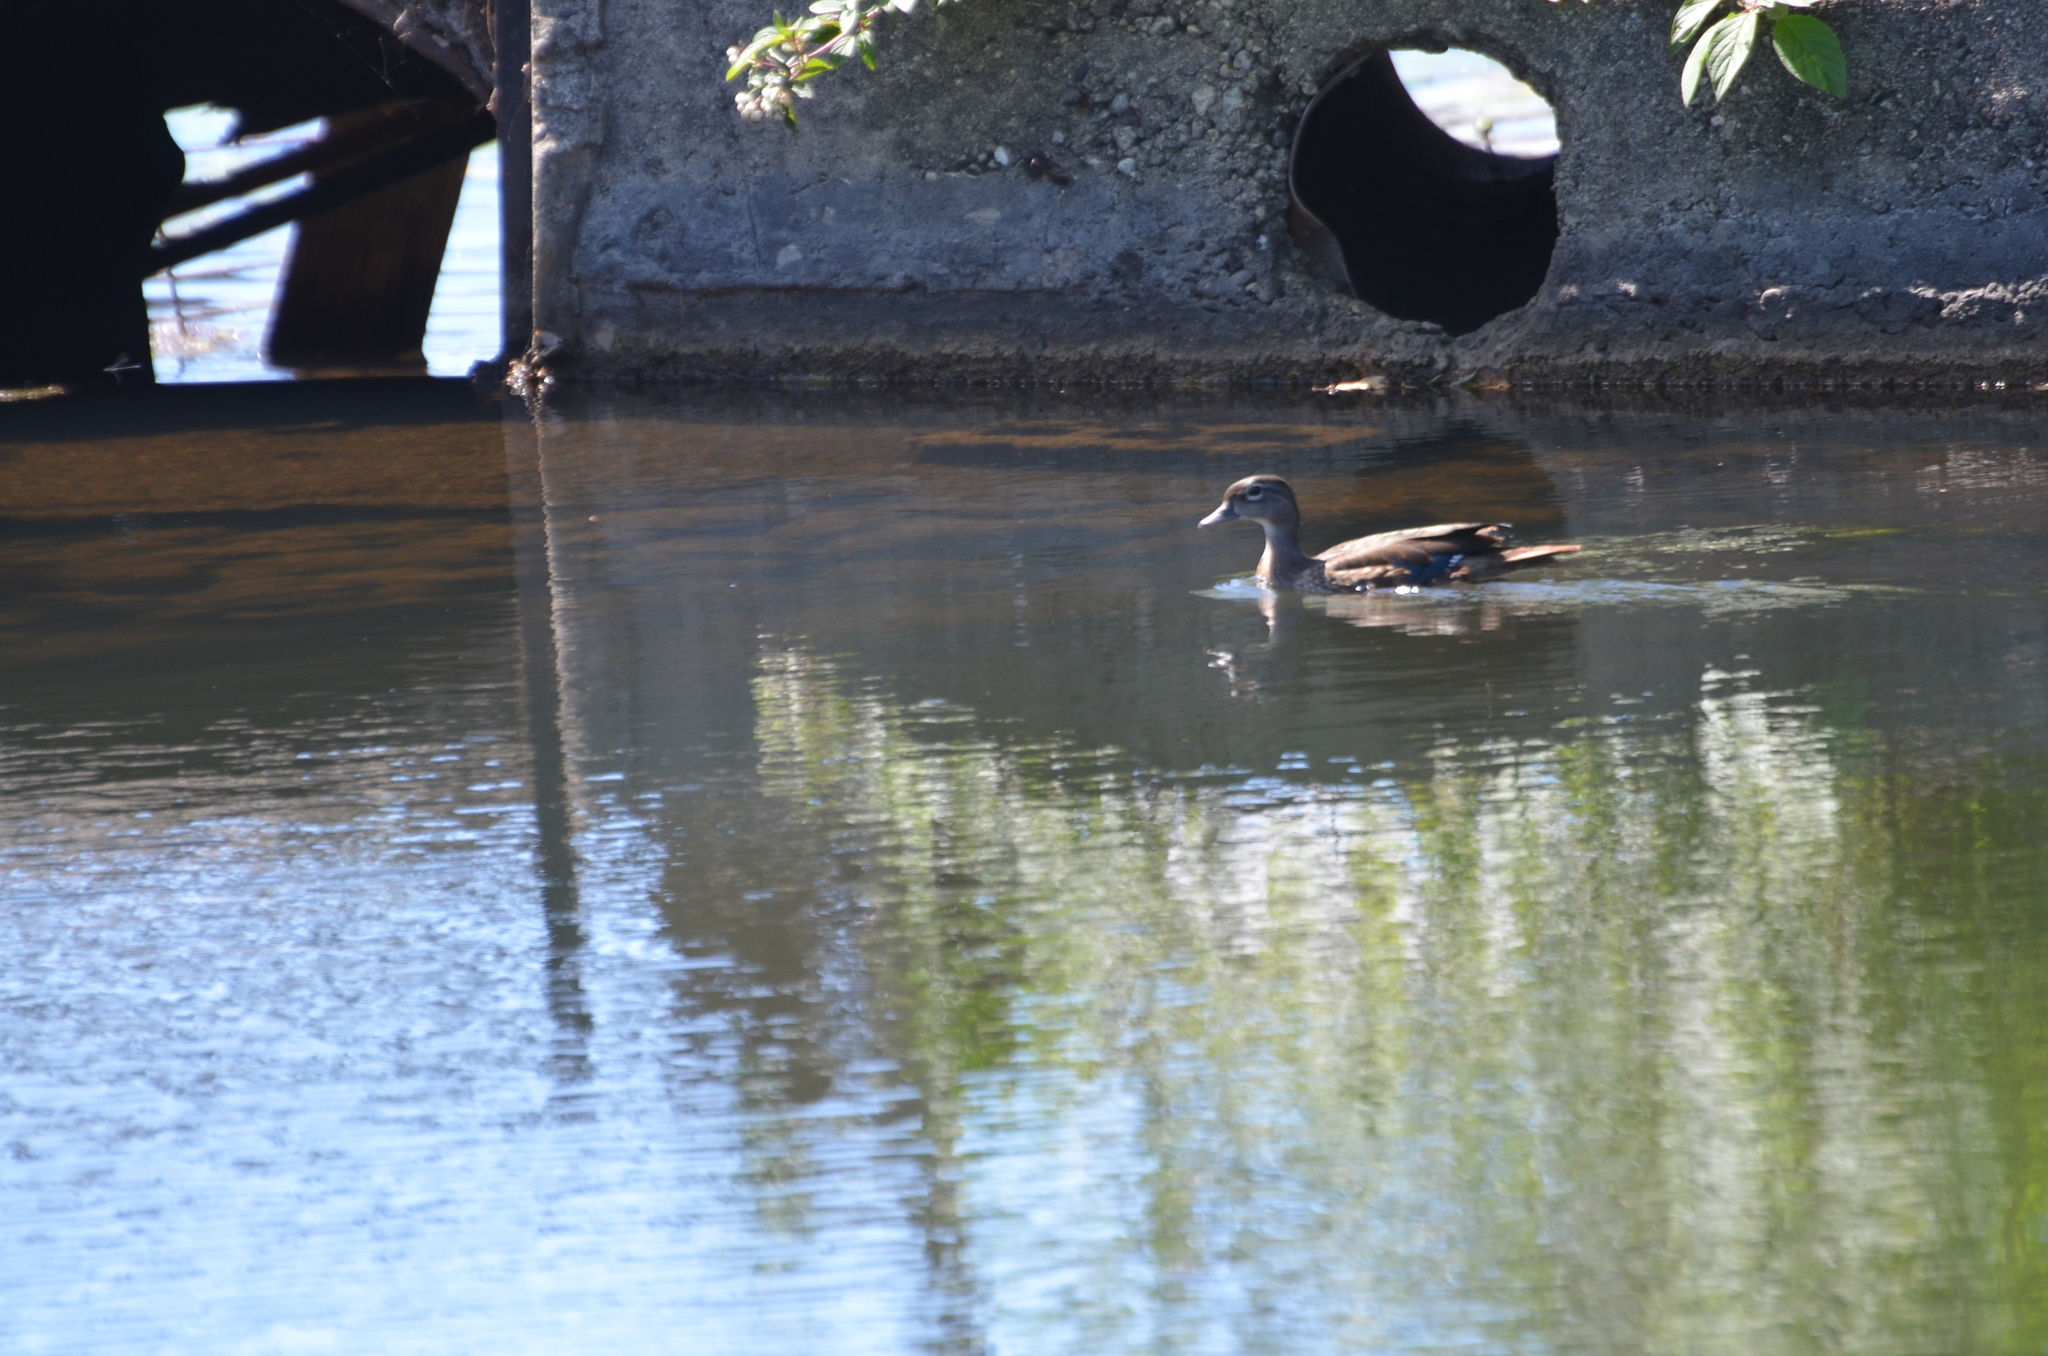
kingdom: Animalia
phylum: Chordata
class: Aves
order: Anseriformes
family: Anatidae
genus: Aix
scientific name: Aix sponsa
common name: Wood duck
